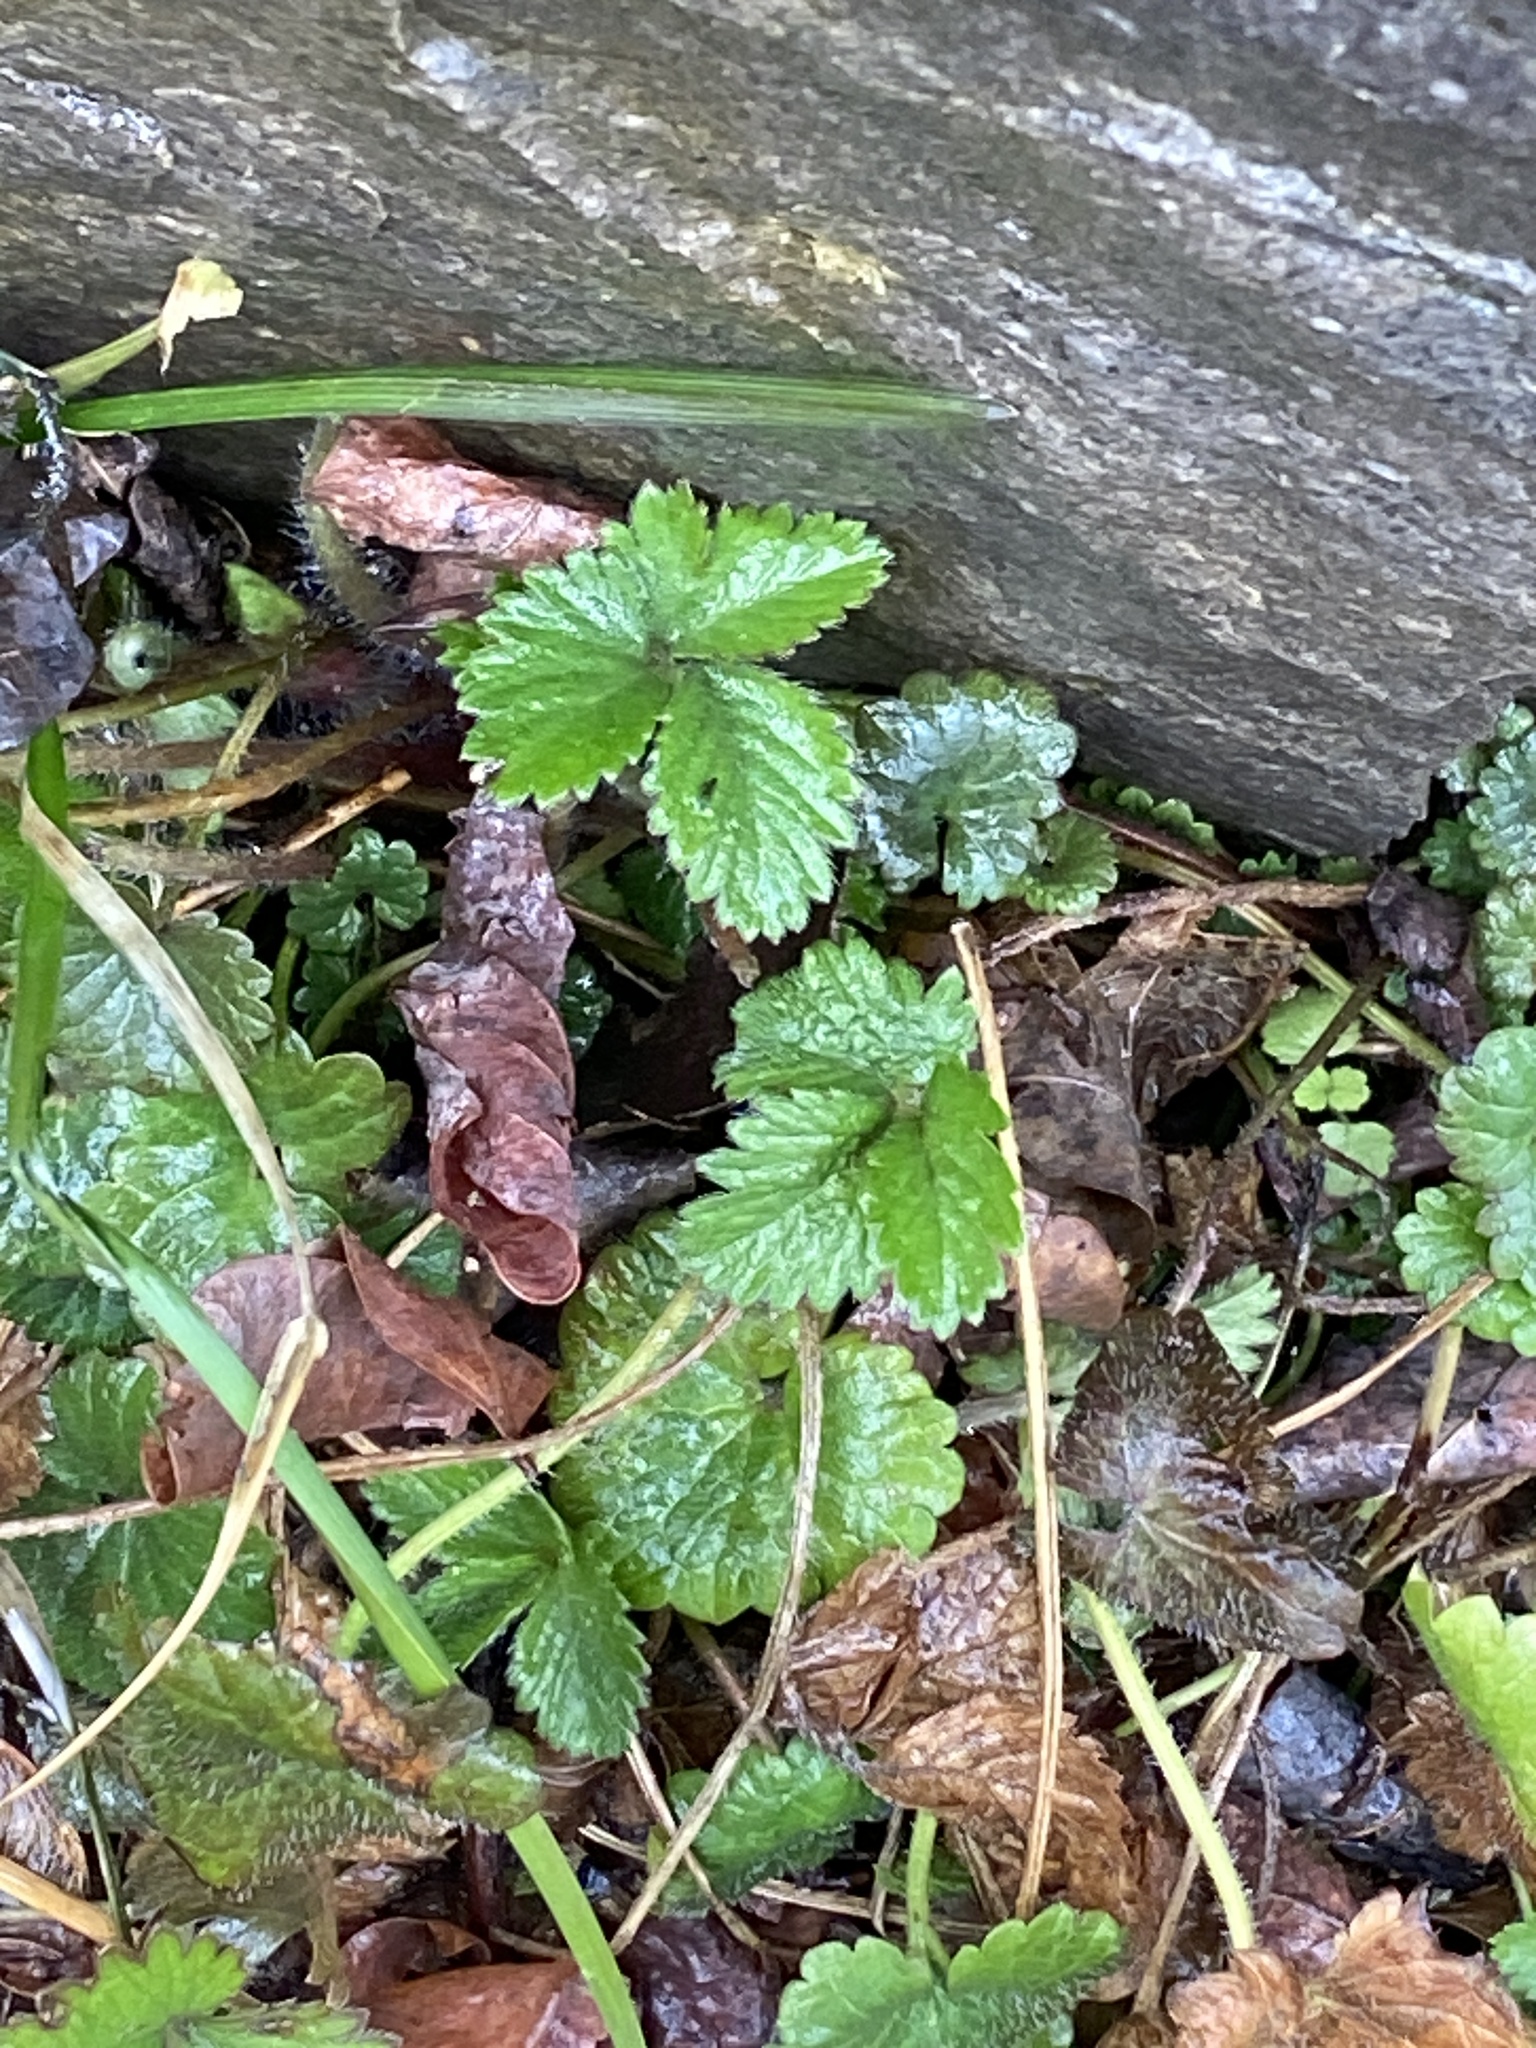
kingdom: Plantae
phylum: Tracheophyta
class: Magnoliopsida
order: Rosales
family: Rosaceae
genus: Potentilla
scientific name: Potentilla indica
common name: Yellow-flowered strawberry
